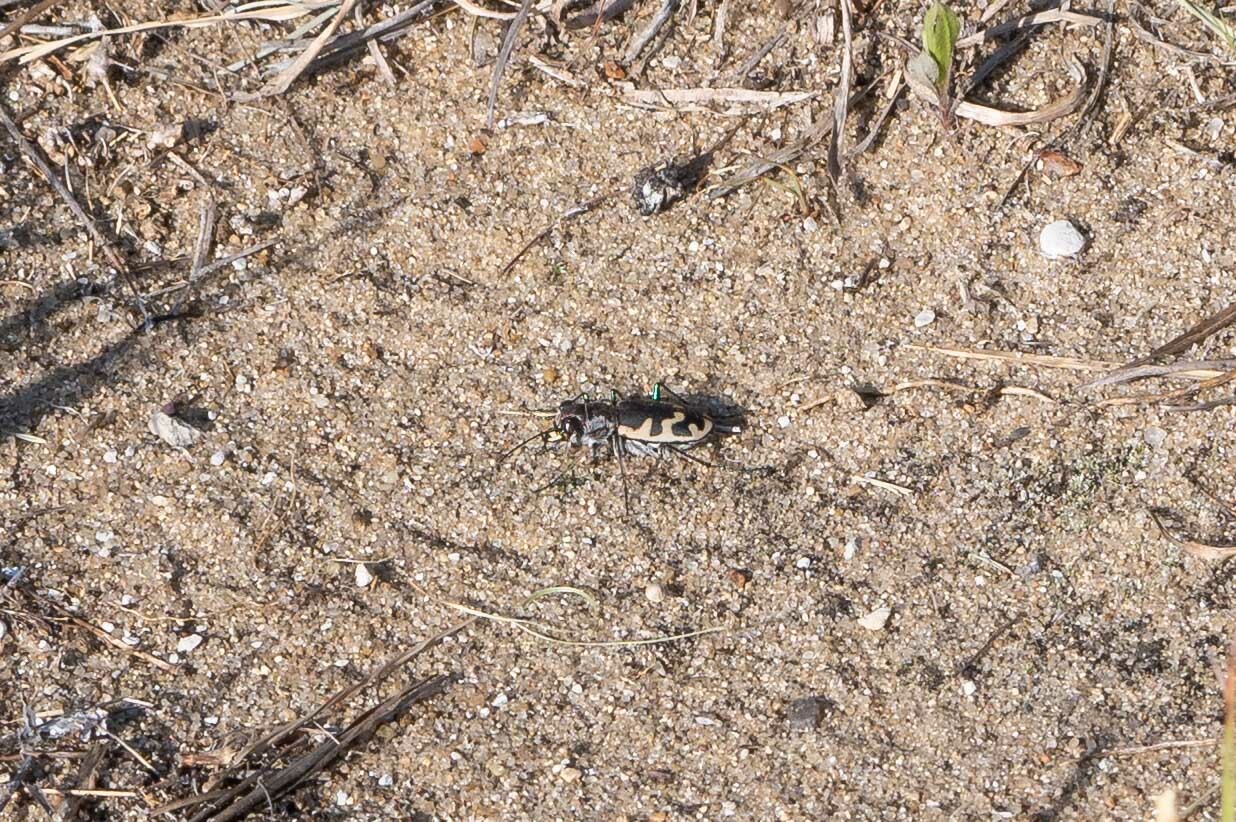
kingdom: Animalia
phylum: Arthropoda
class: Insecta
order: Coleoptera
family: Carabidae
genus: Cicindela
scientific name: Cicindela formosa
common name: Big sand tiger beetle
